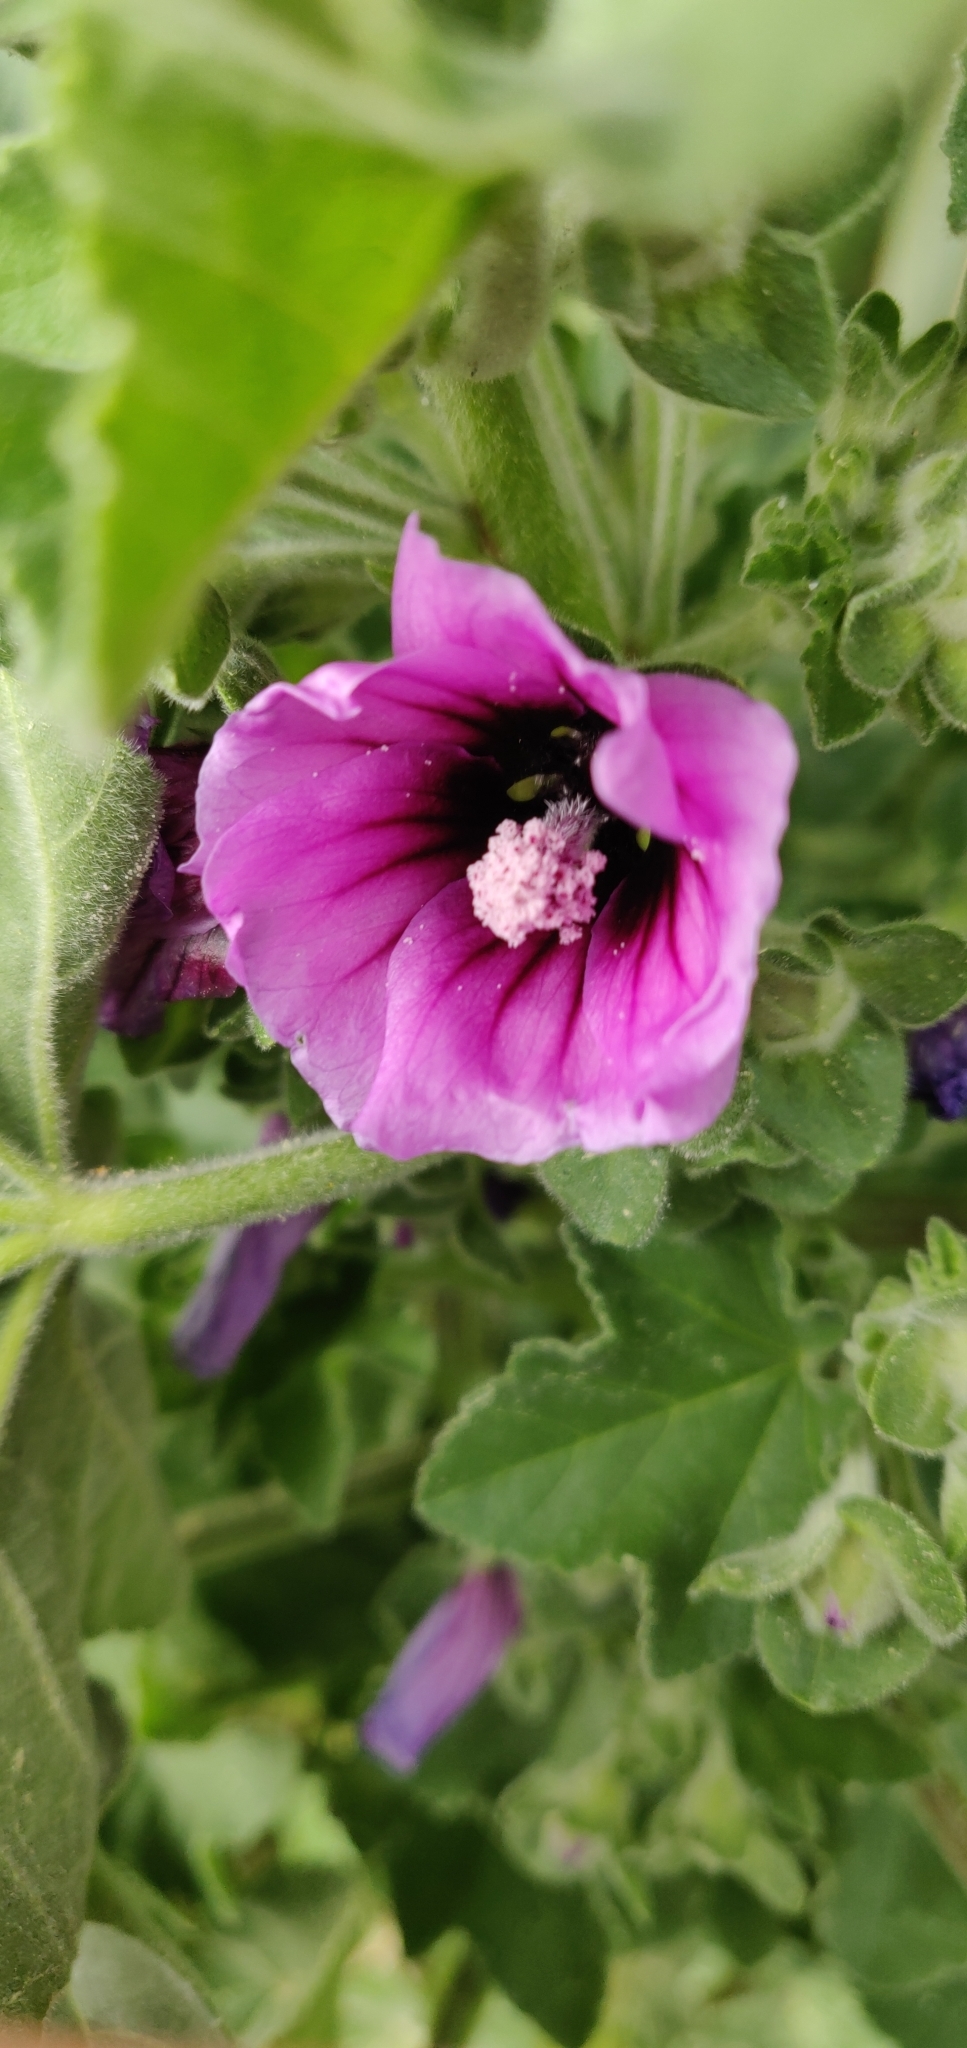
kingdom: Plantae
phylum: Tracheophyta
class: Magnoliopsida
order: Malvales
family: Malvaceae
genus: Malva
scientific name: Malva arborea
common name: Tree mallow
